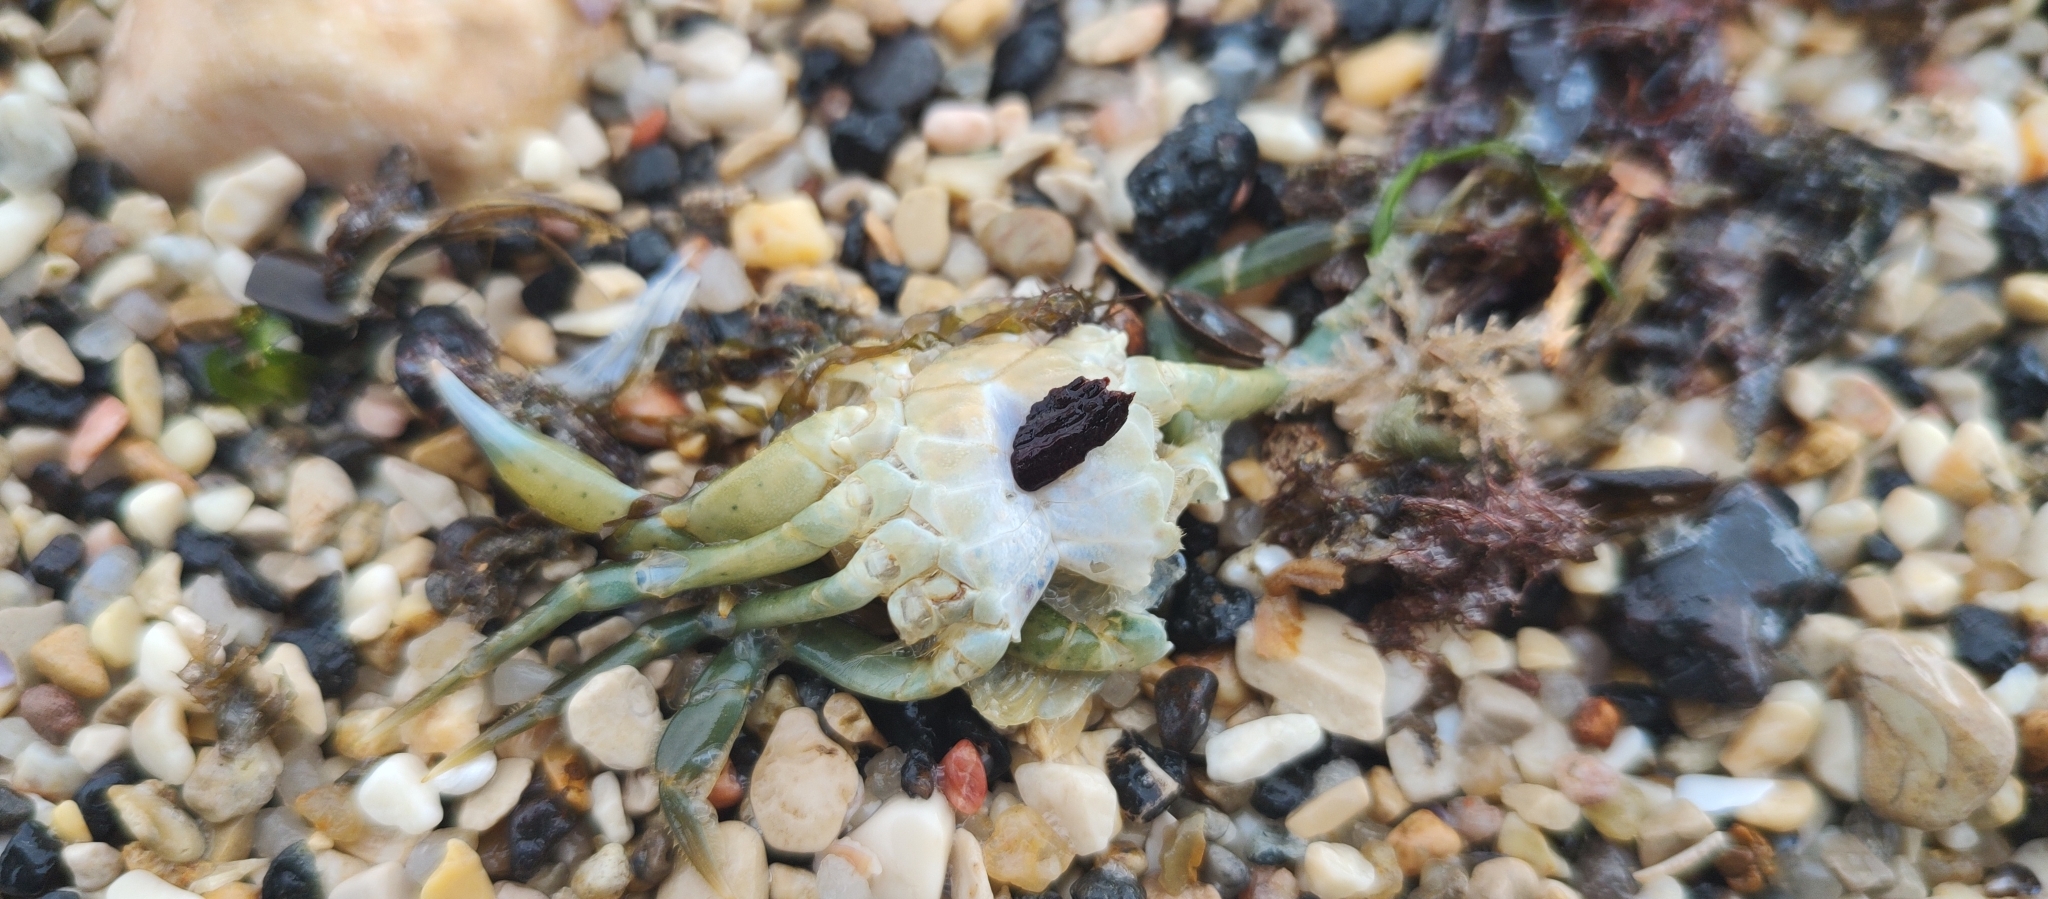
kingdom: Animalia
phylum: Arthropoda
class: Malacostraca
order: Decapoda
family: Carcinidae
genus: Carcinus
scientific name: Carcinus maenas
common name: European green crab
